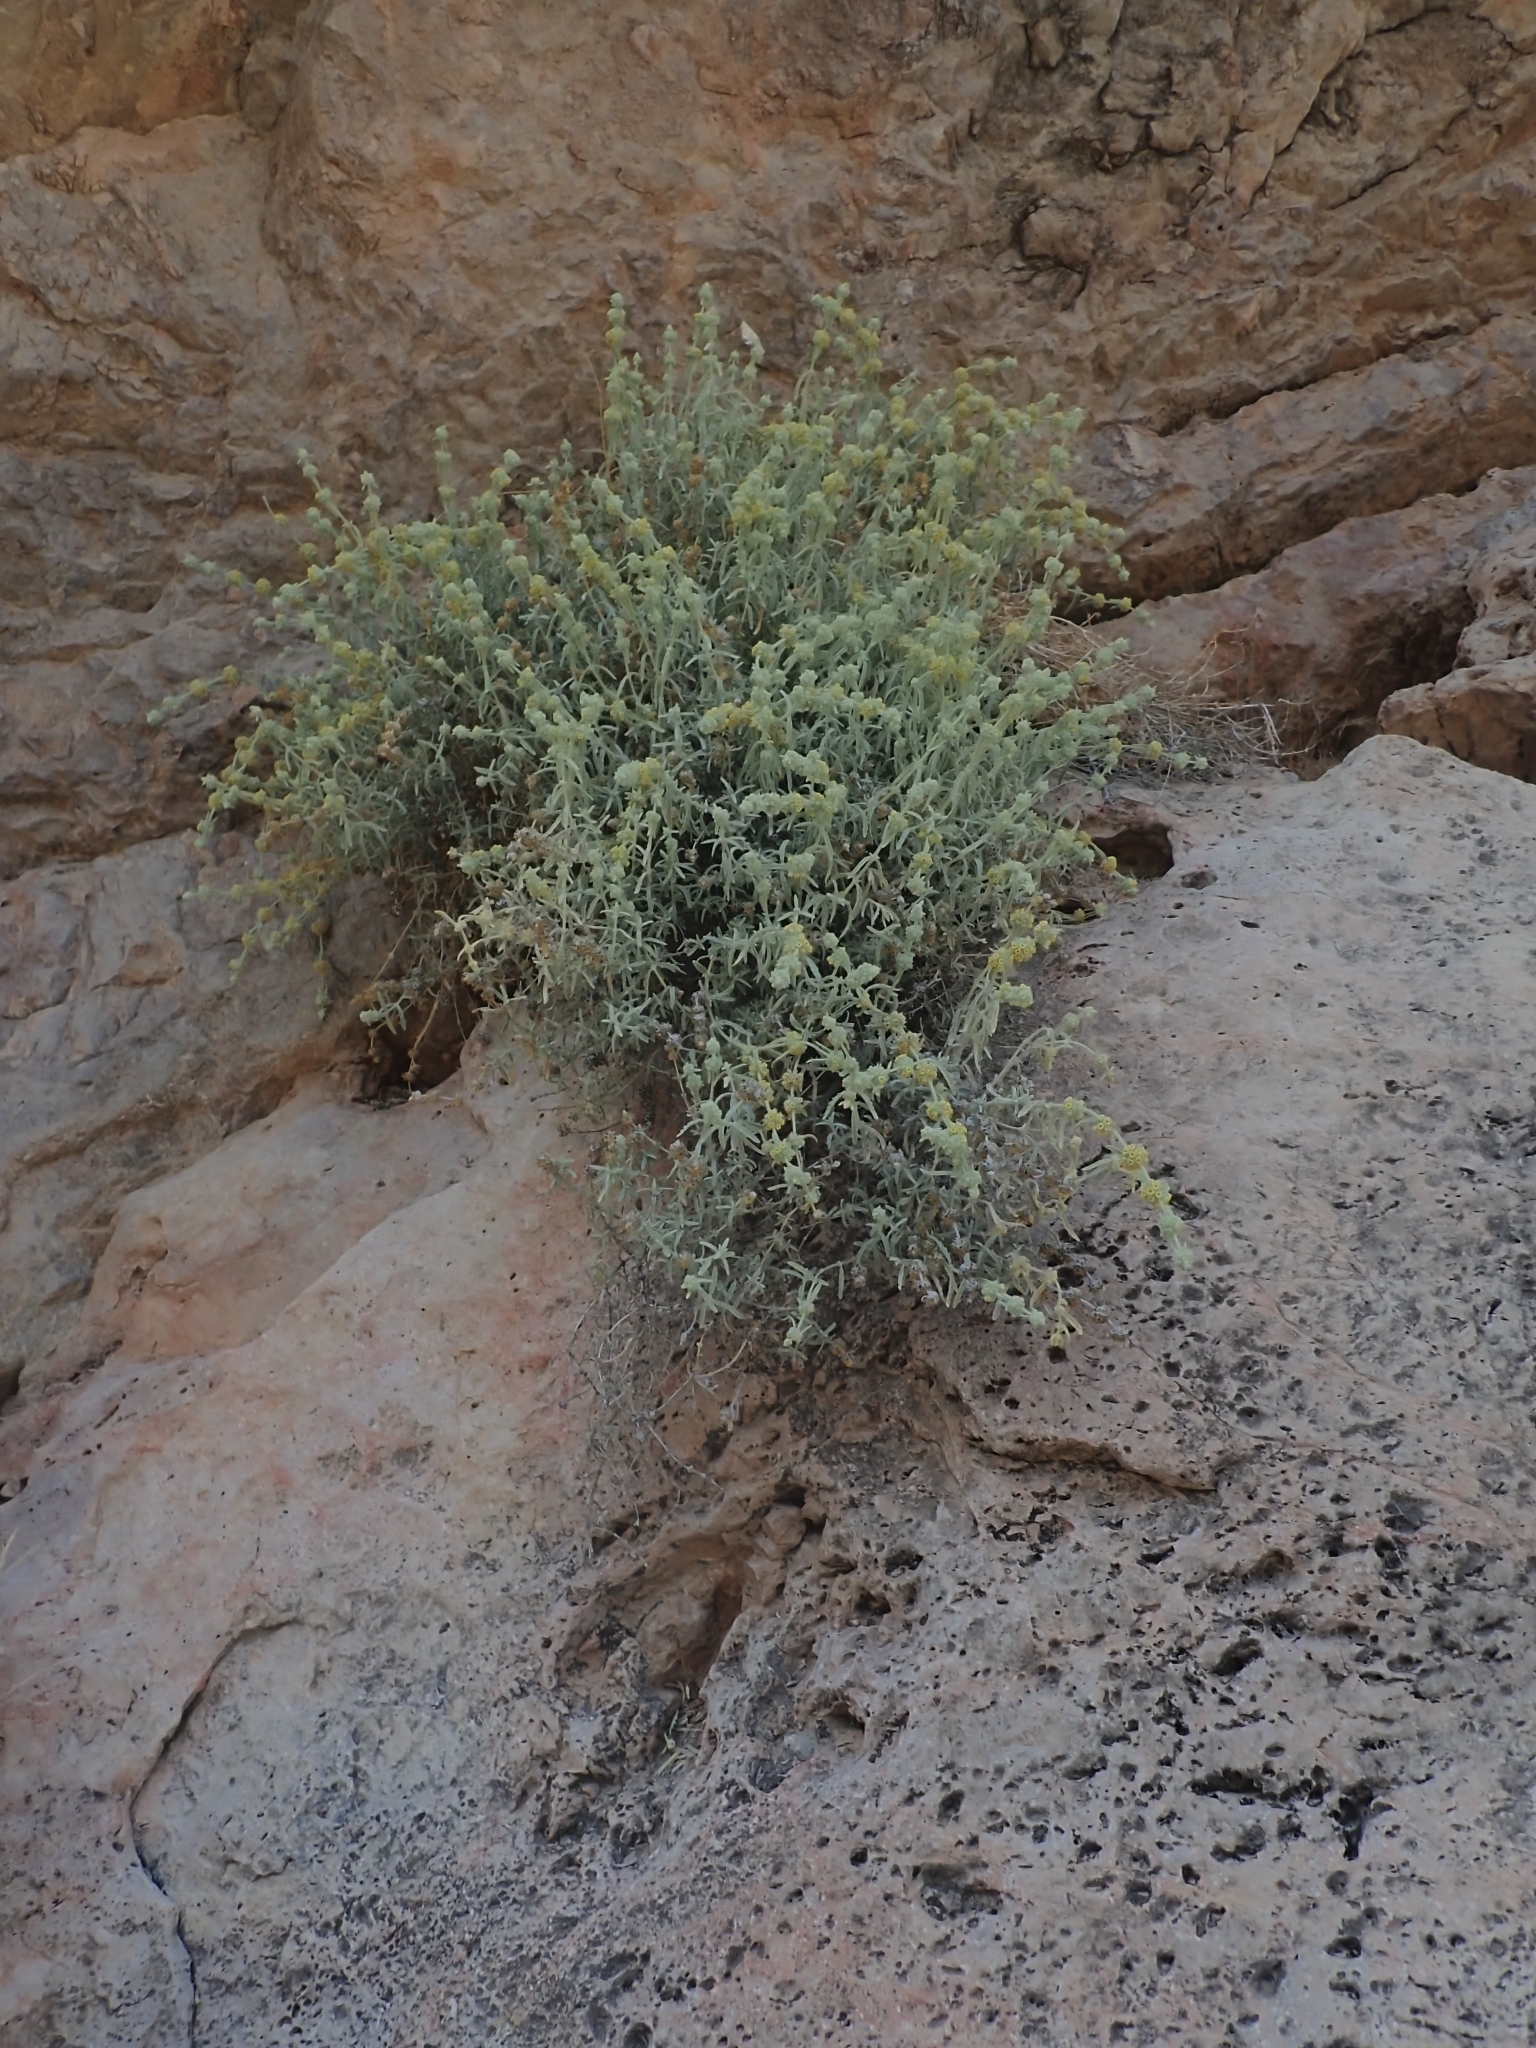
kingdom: Plantae
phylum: Tracheophyta
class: Magnoliopsida
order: Lamiales
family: Scrophulariaceae
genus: Buddleja
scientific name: Buddleja utahensis
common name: Utah butterfly-bush
